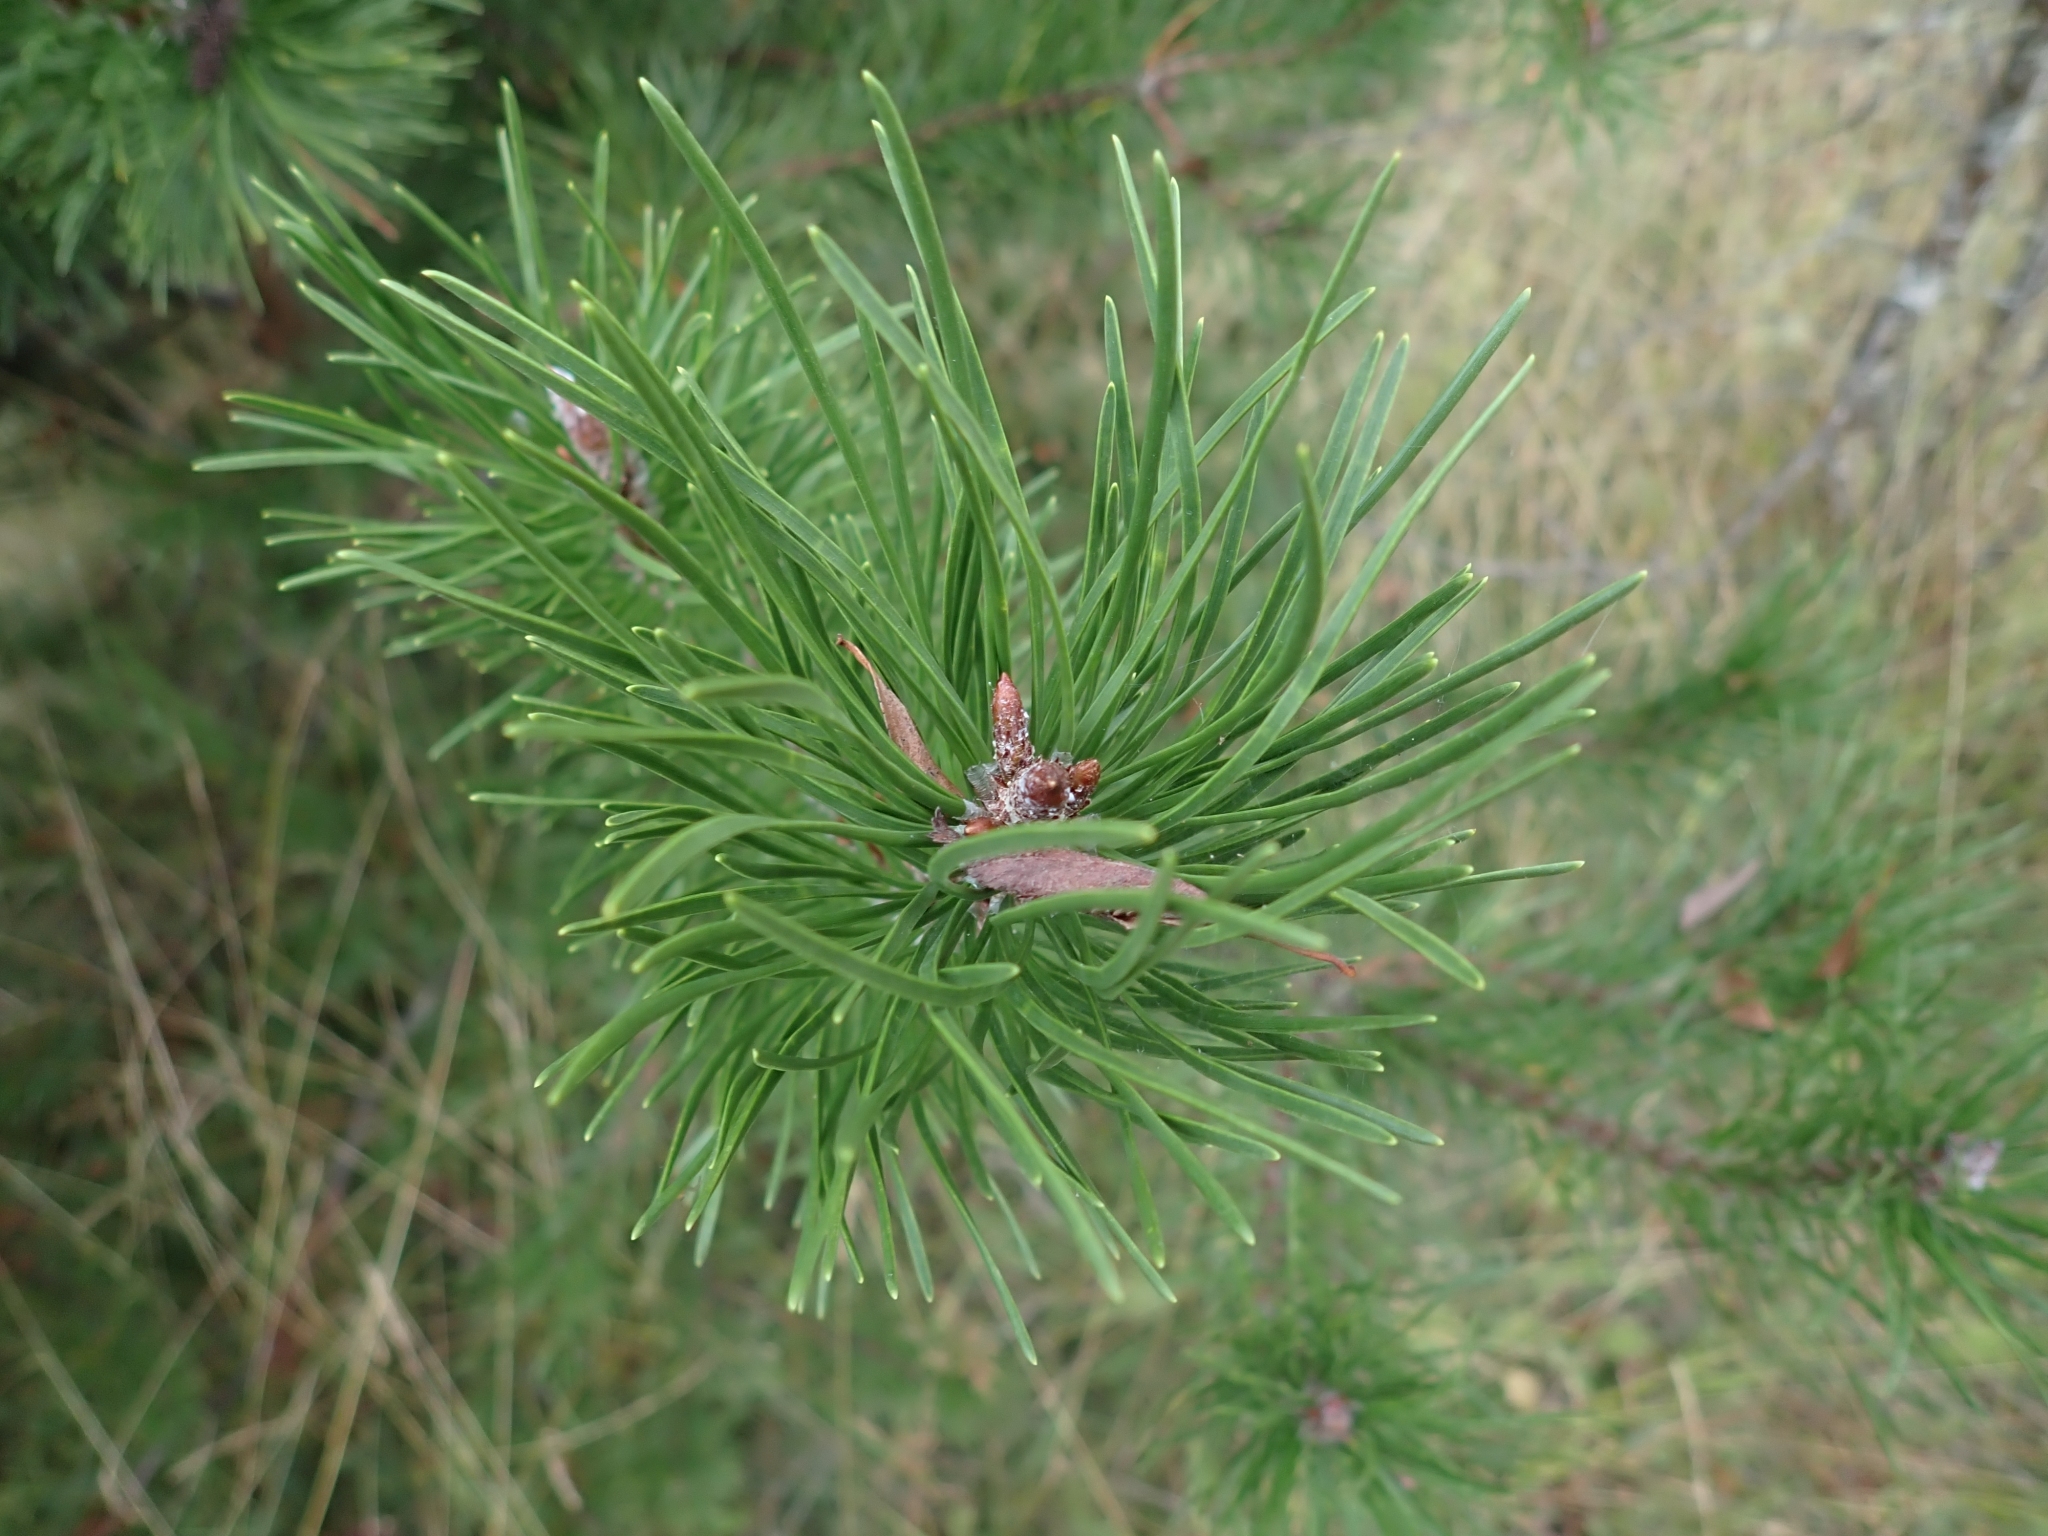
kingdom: Plantae
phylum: Tracheophyta
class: Pinopsida
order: Pinales
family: Pinaceae
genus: Pinus
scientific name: Pinus contorta
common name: Lodgepole pine
